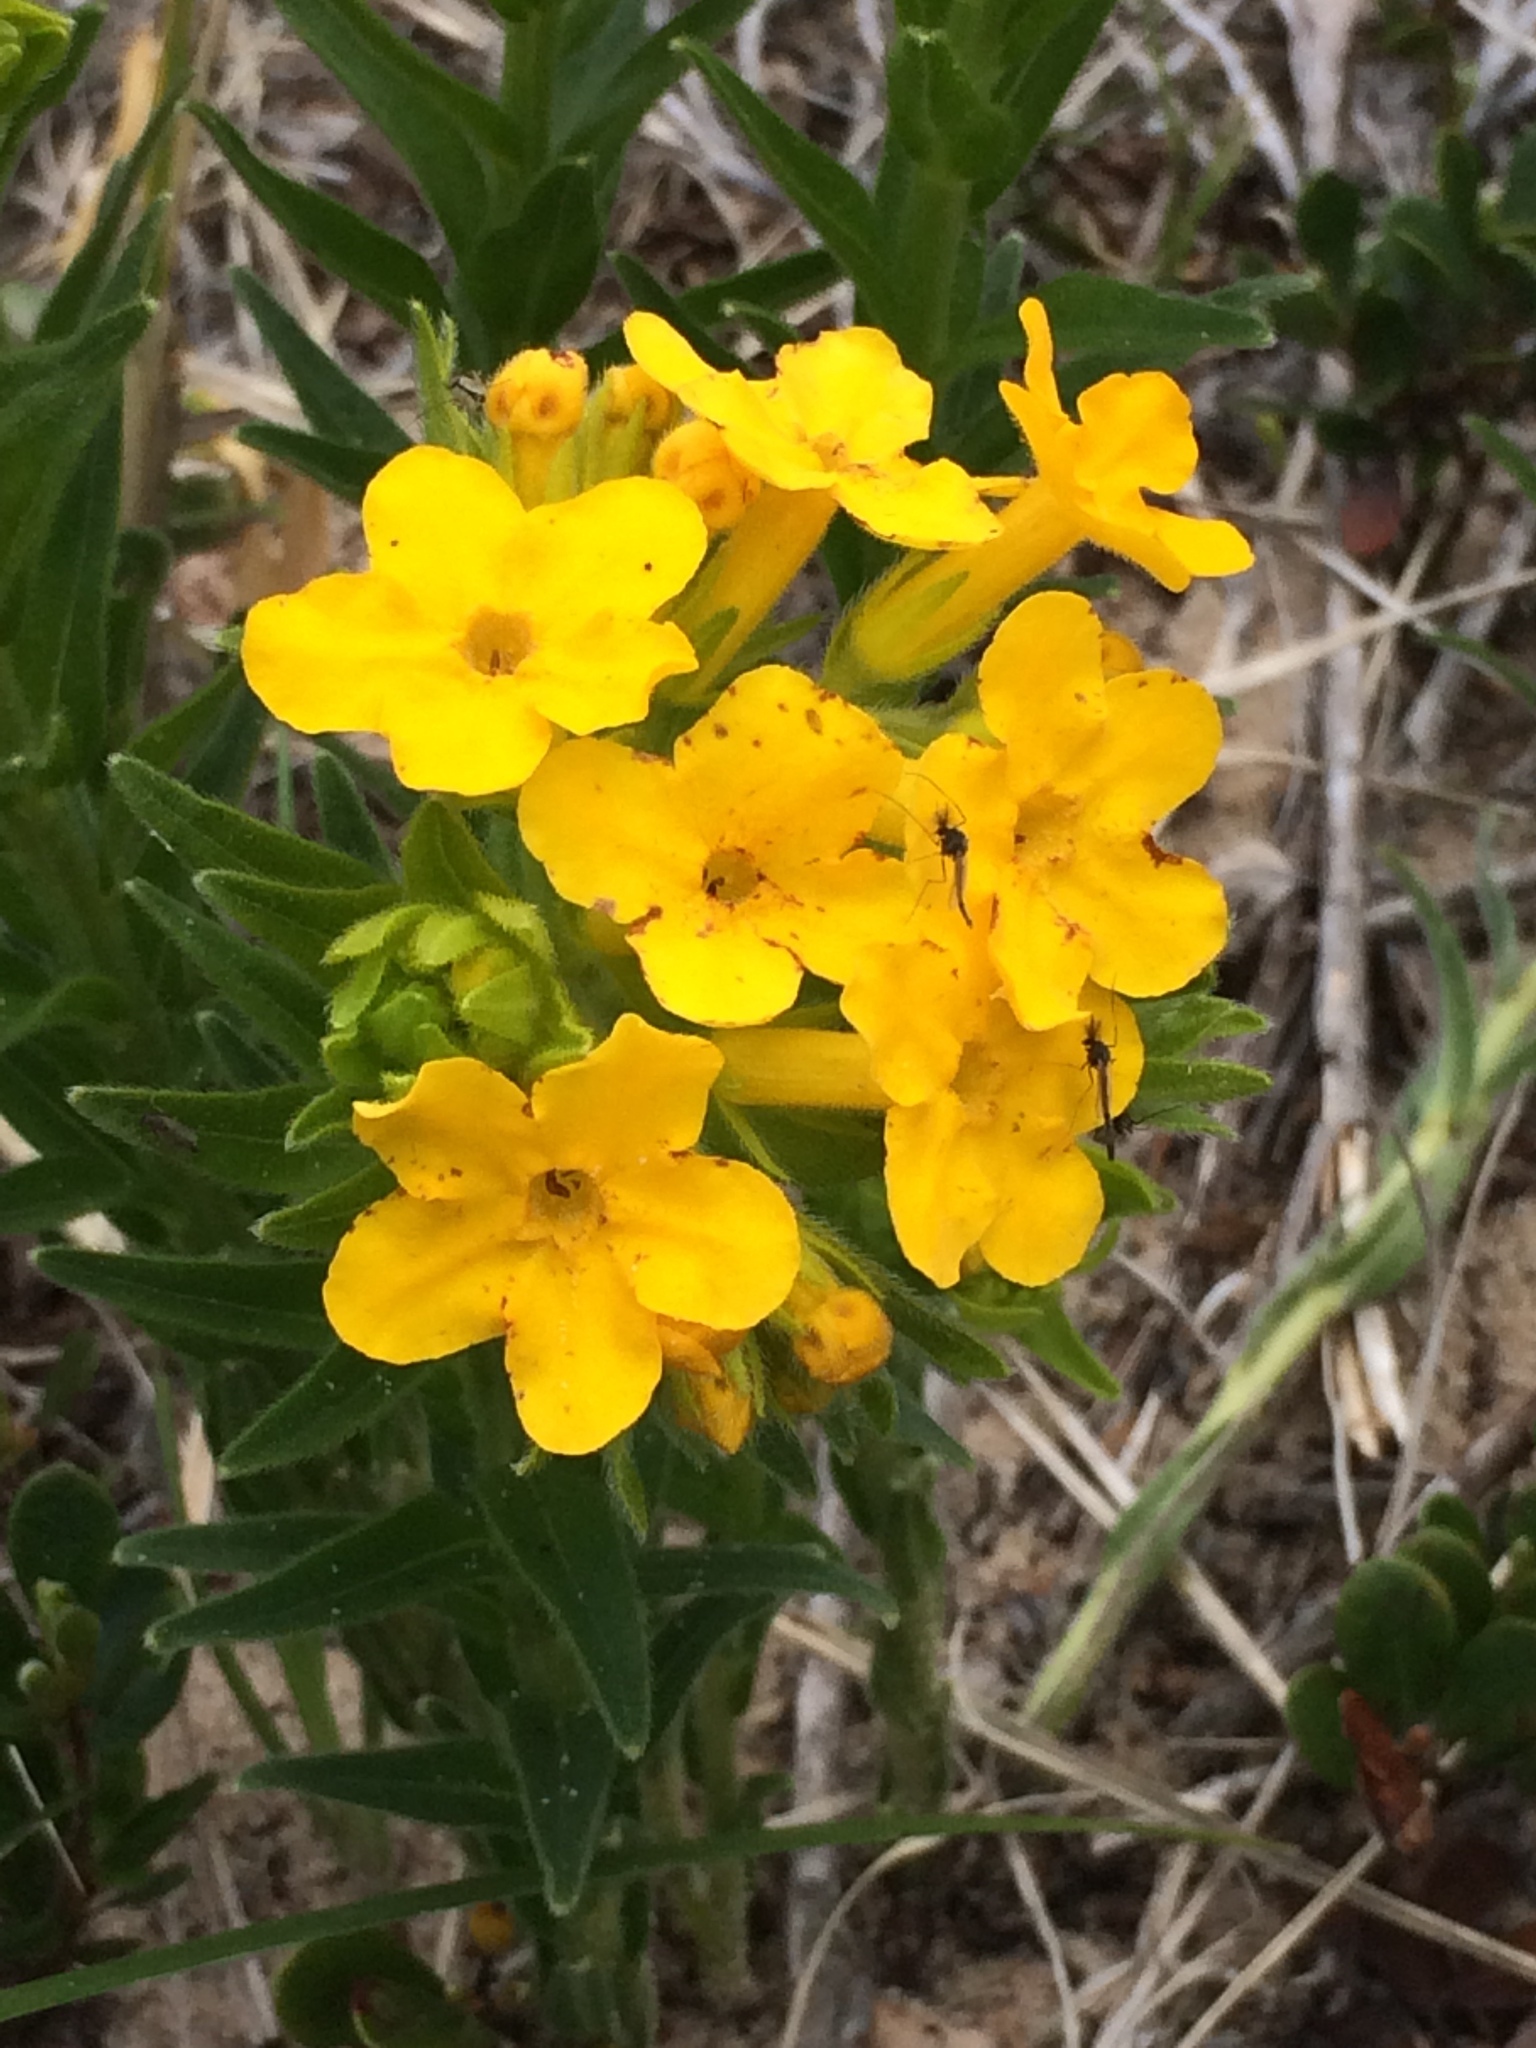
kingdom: Plantae
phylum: Tracheophyta
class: Magnoliopsida
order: Boraginales
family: Boraginaceae
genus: Lithospermum
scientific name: Lithospermum caroliniense
